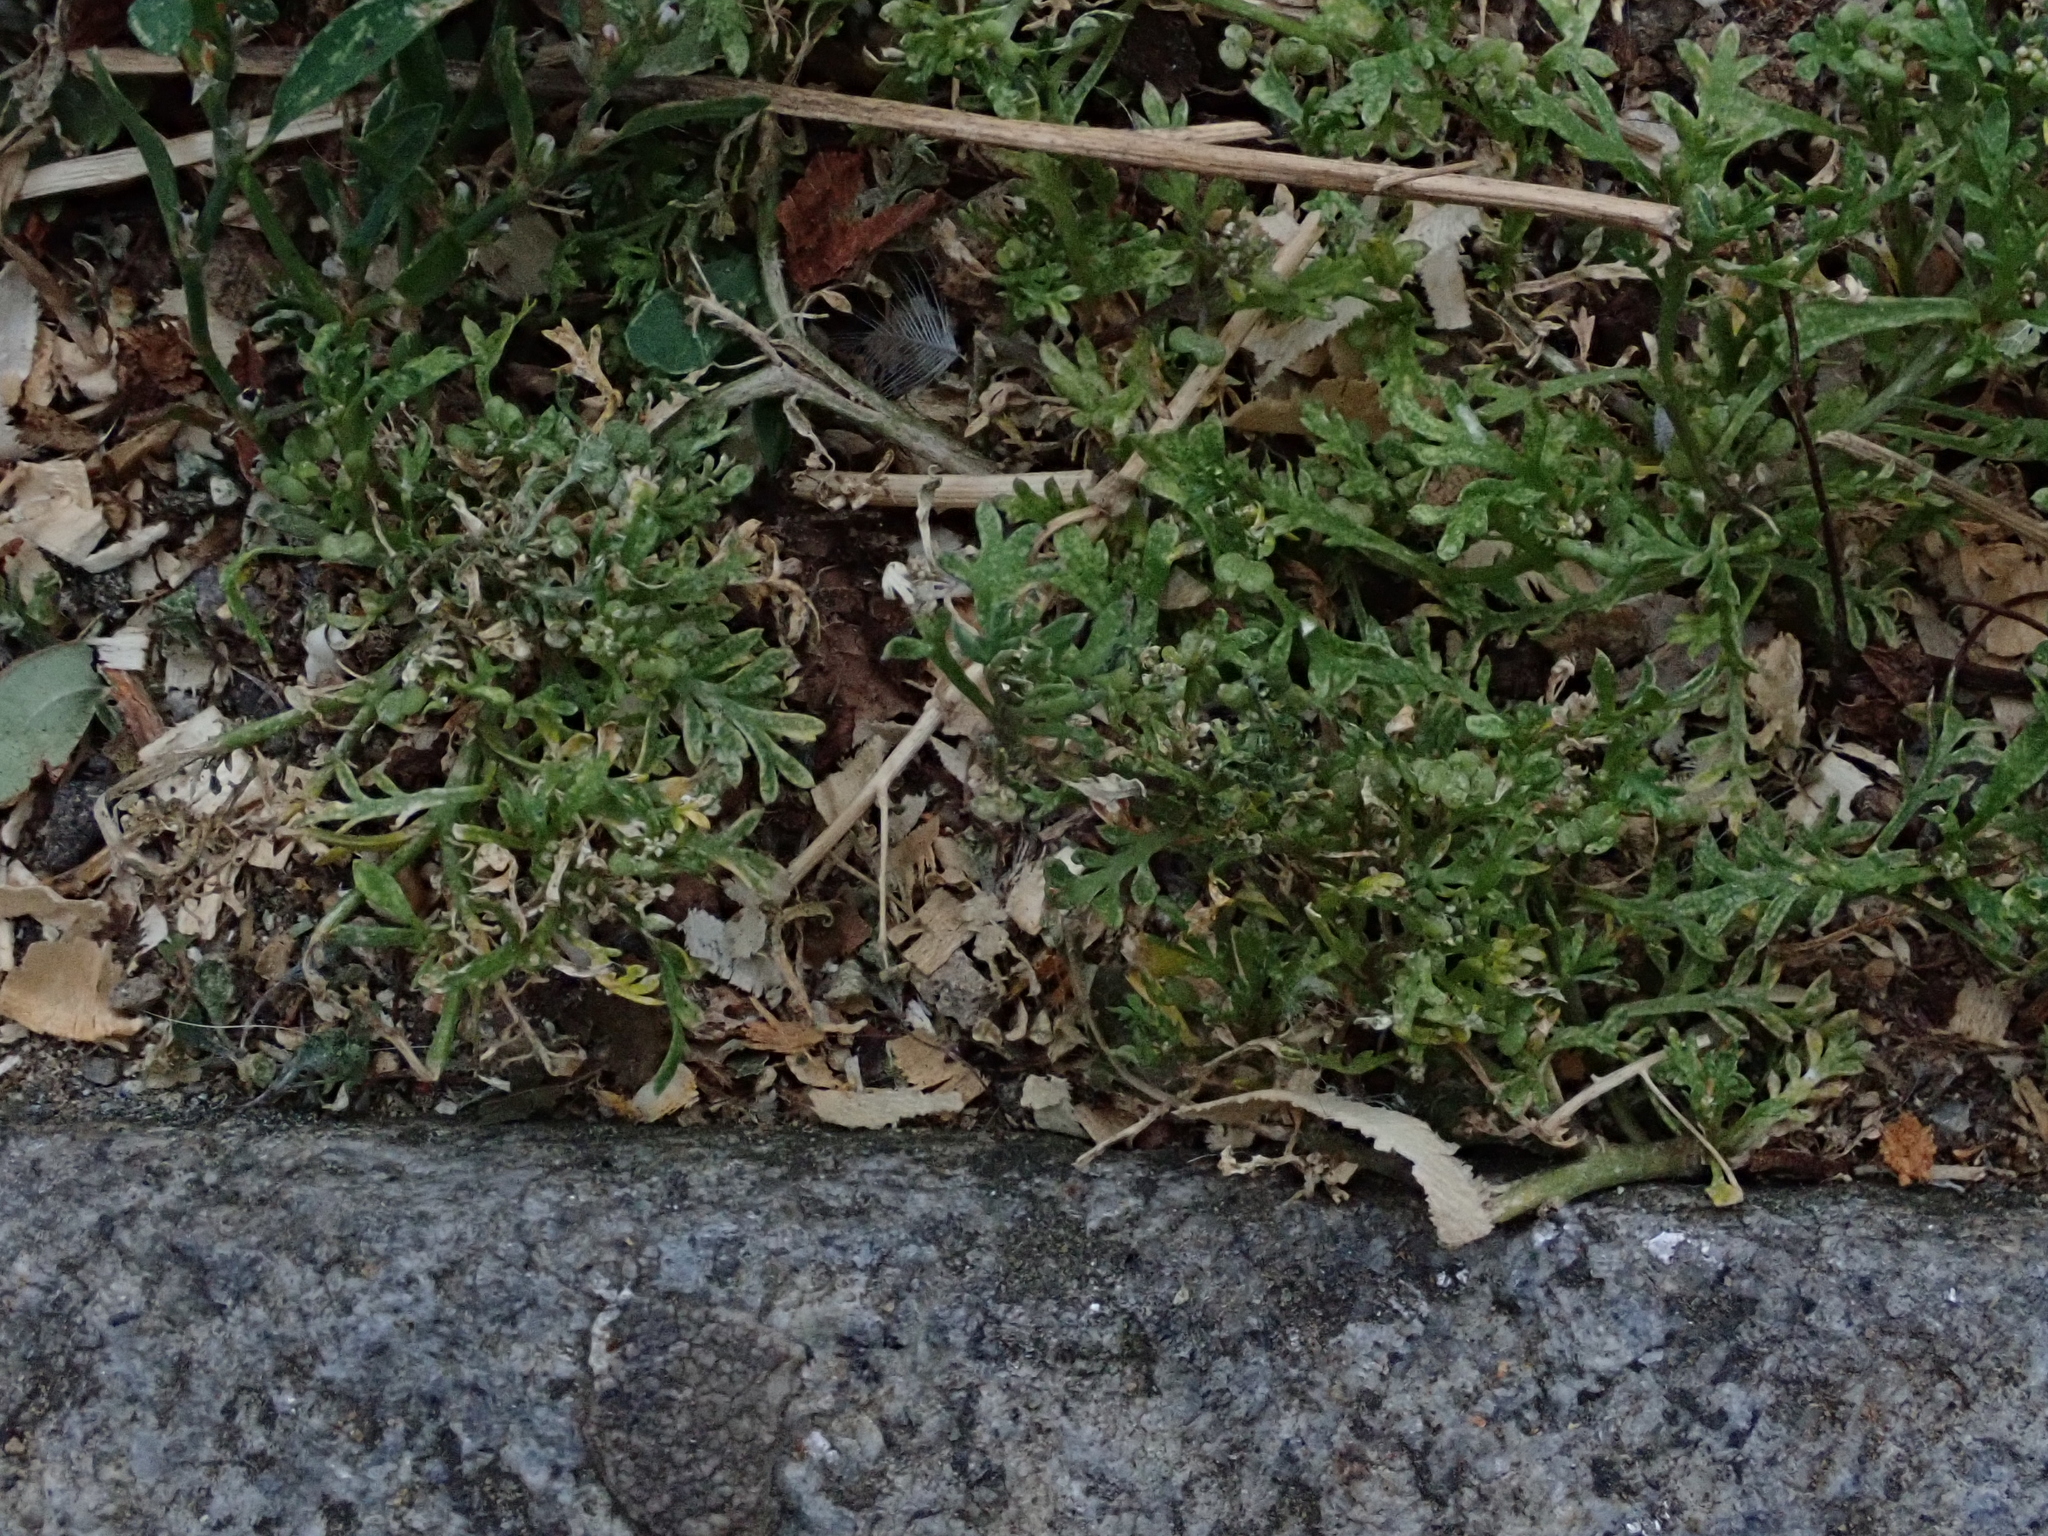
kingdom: Plantae
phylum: Tracheophyta
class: Magnoliopsida
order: Brassicales
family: Brassicaceae
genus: Lepidium
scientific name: Lepidium didymum
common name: Lesser swinecress
